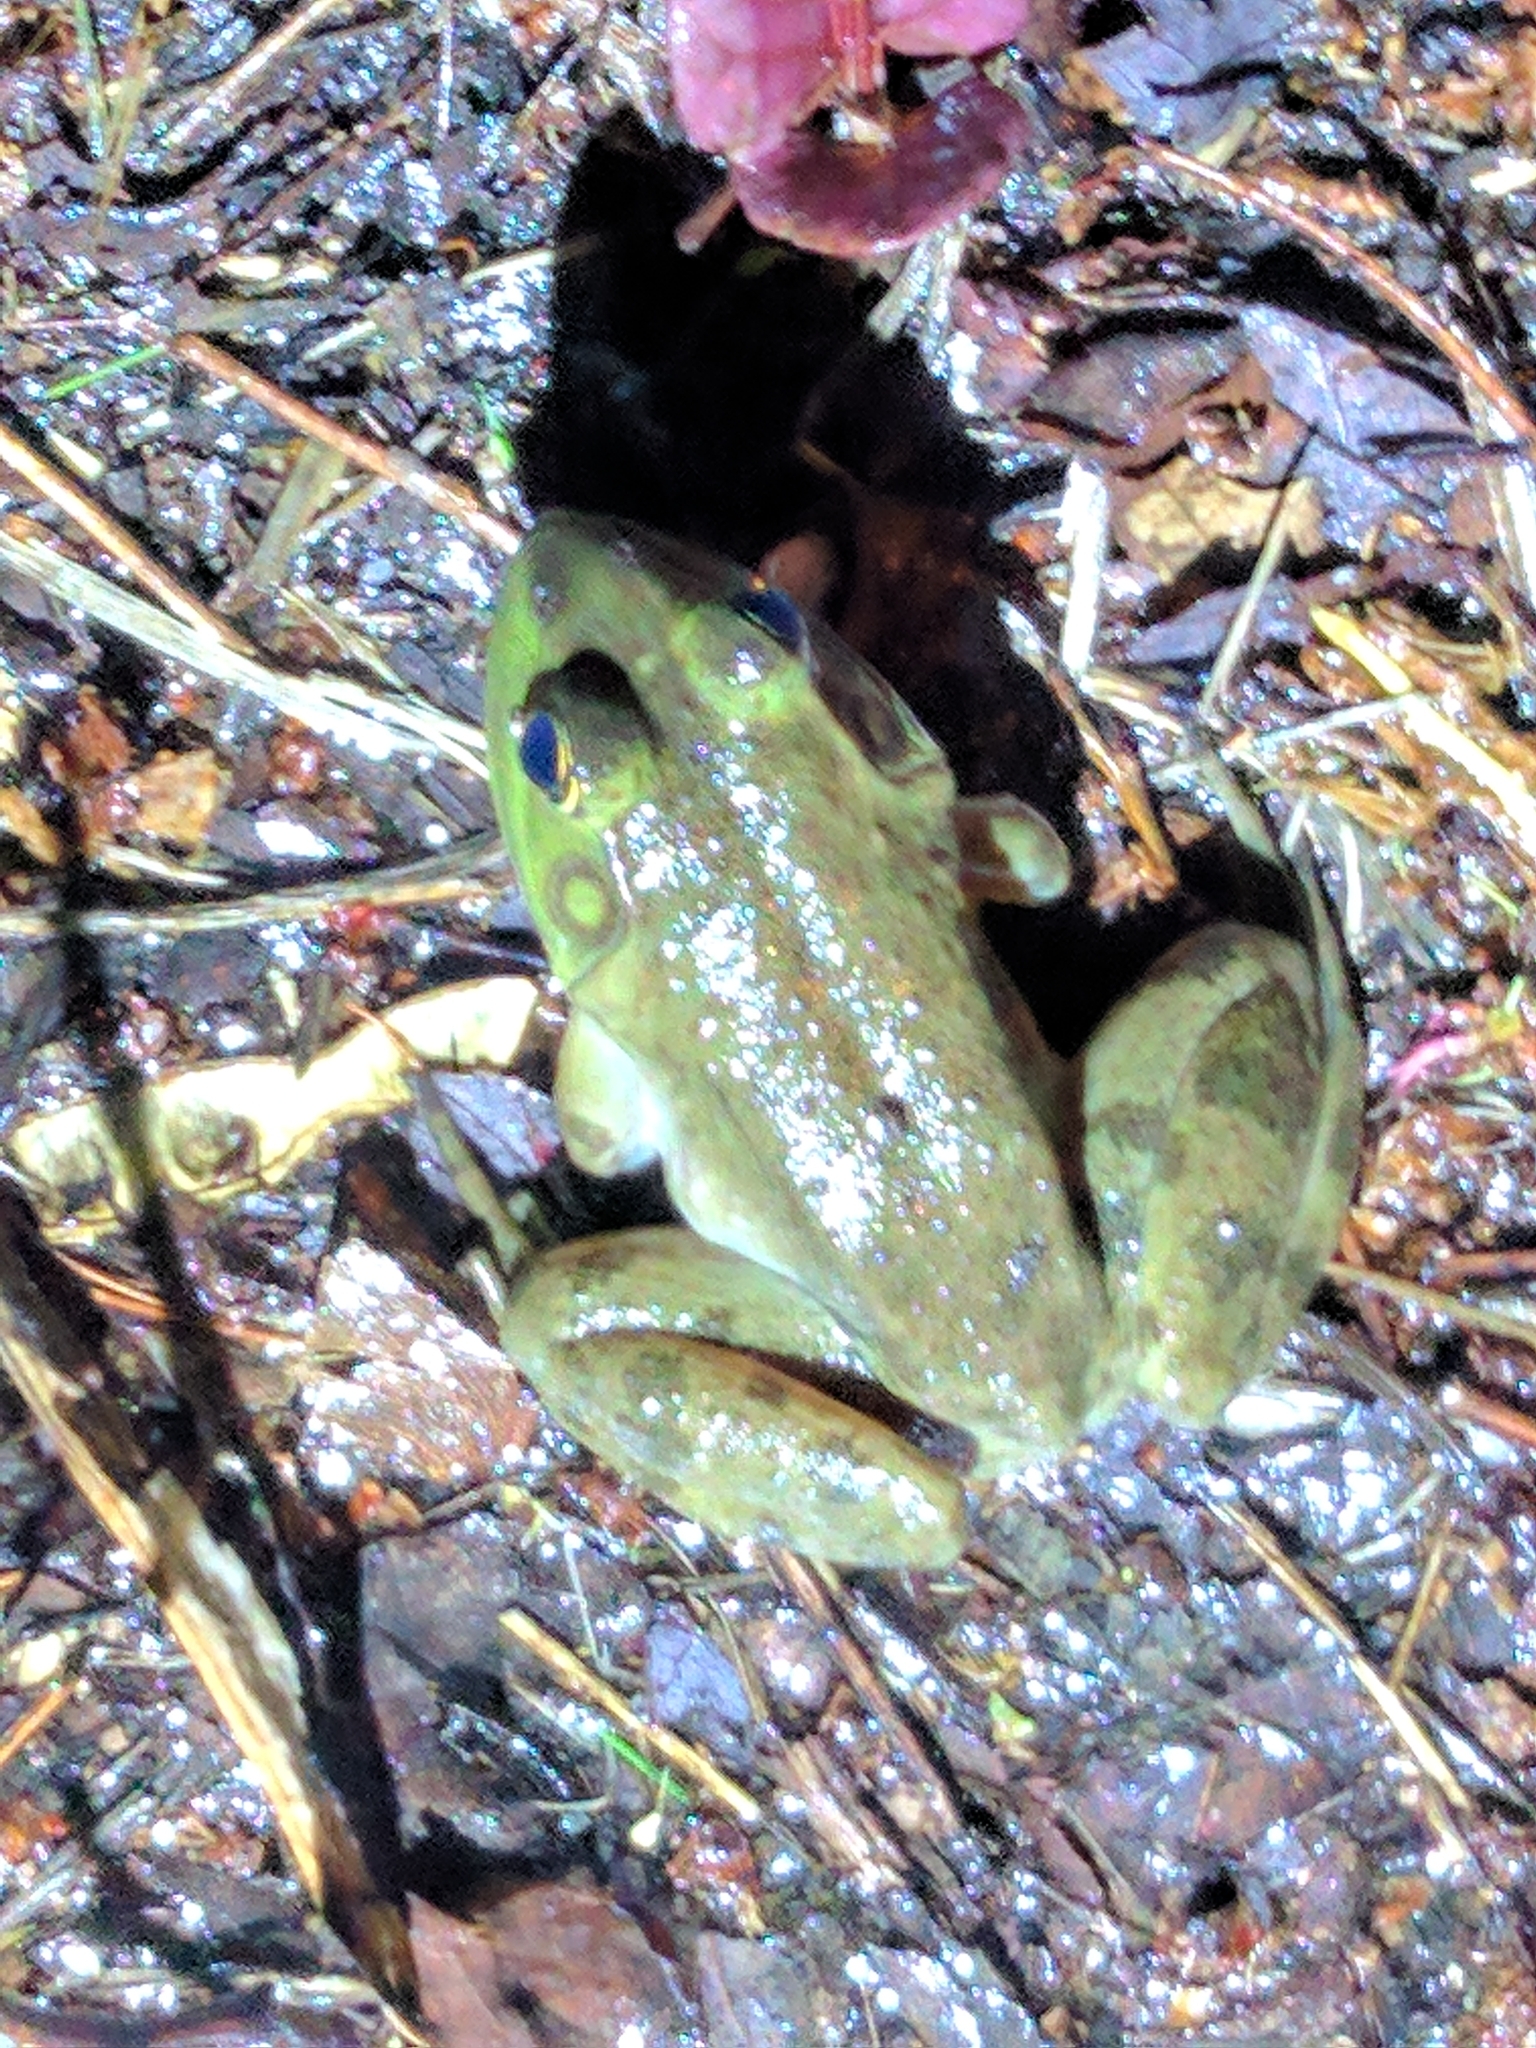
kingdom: Animalia
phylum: Chordata
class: Amphibia
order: Anura
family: Ranidae
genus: Lithobates
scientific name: Lithobates catesbeianus
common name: American bullfrog
